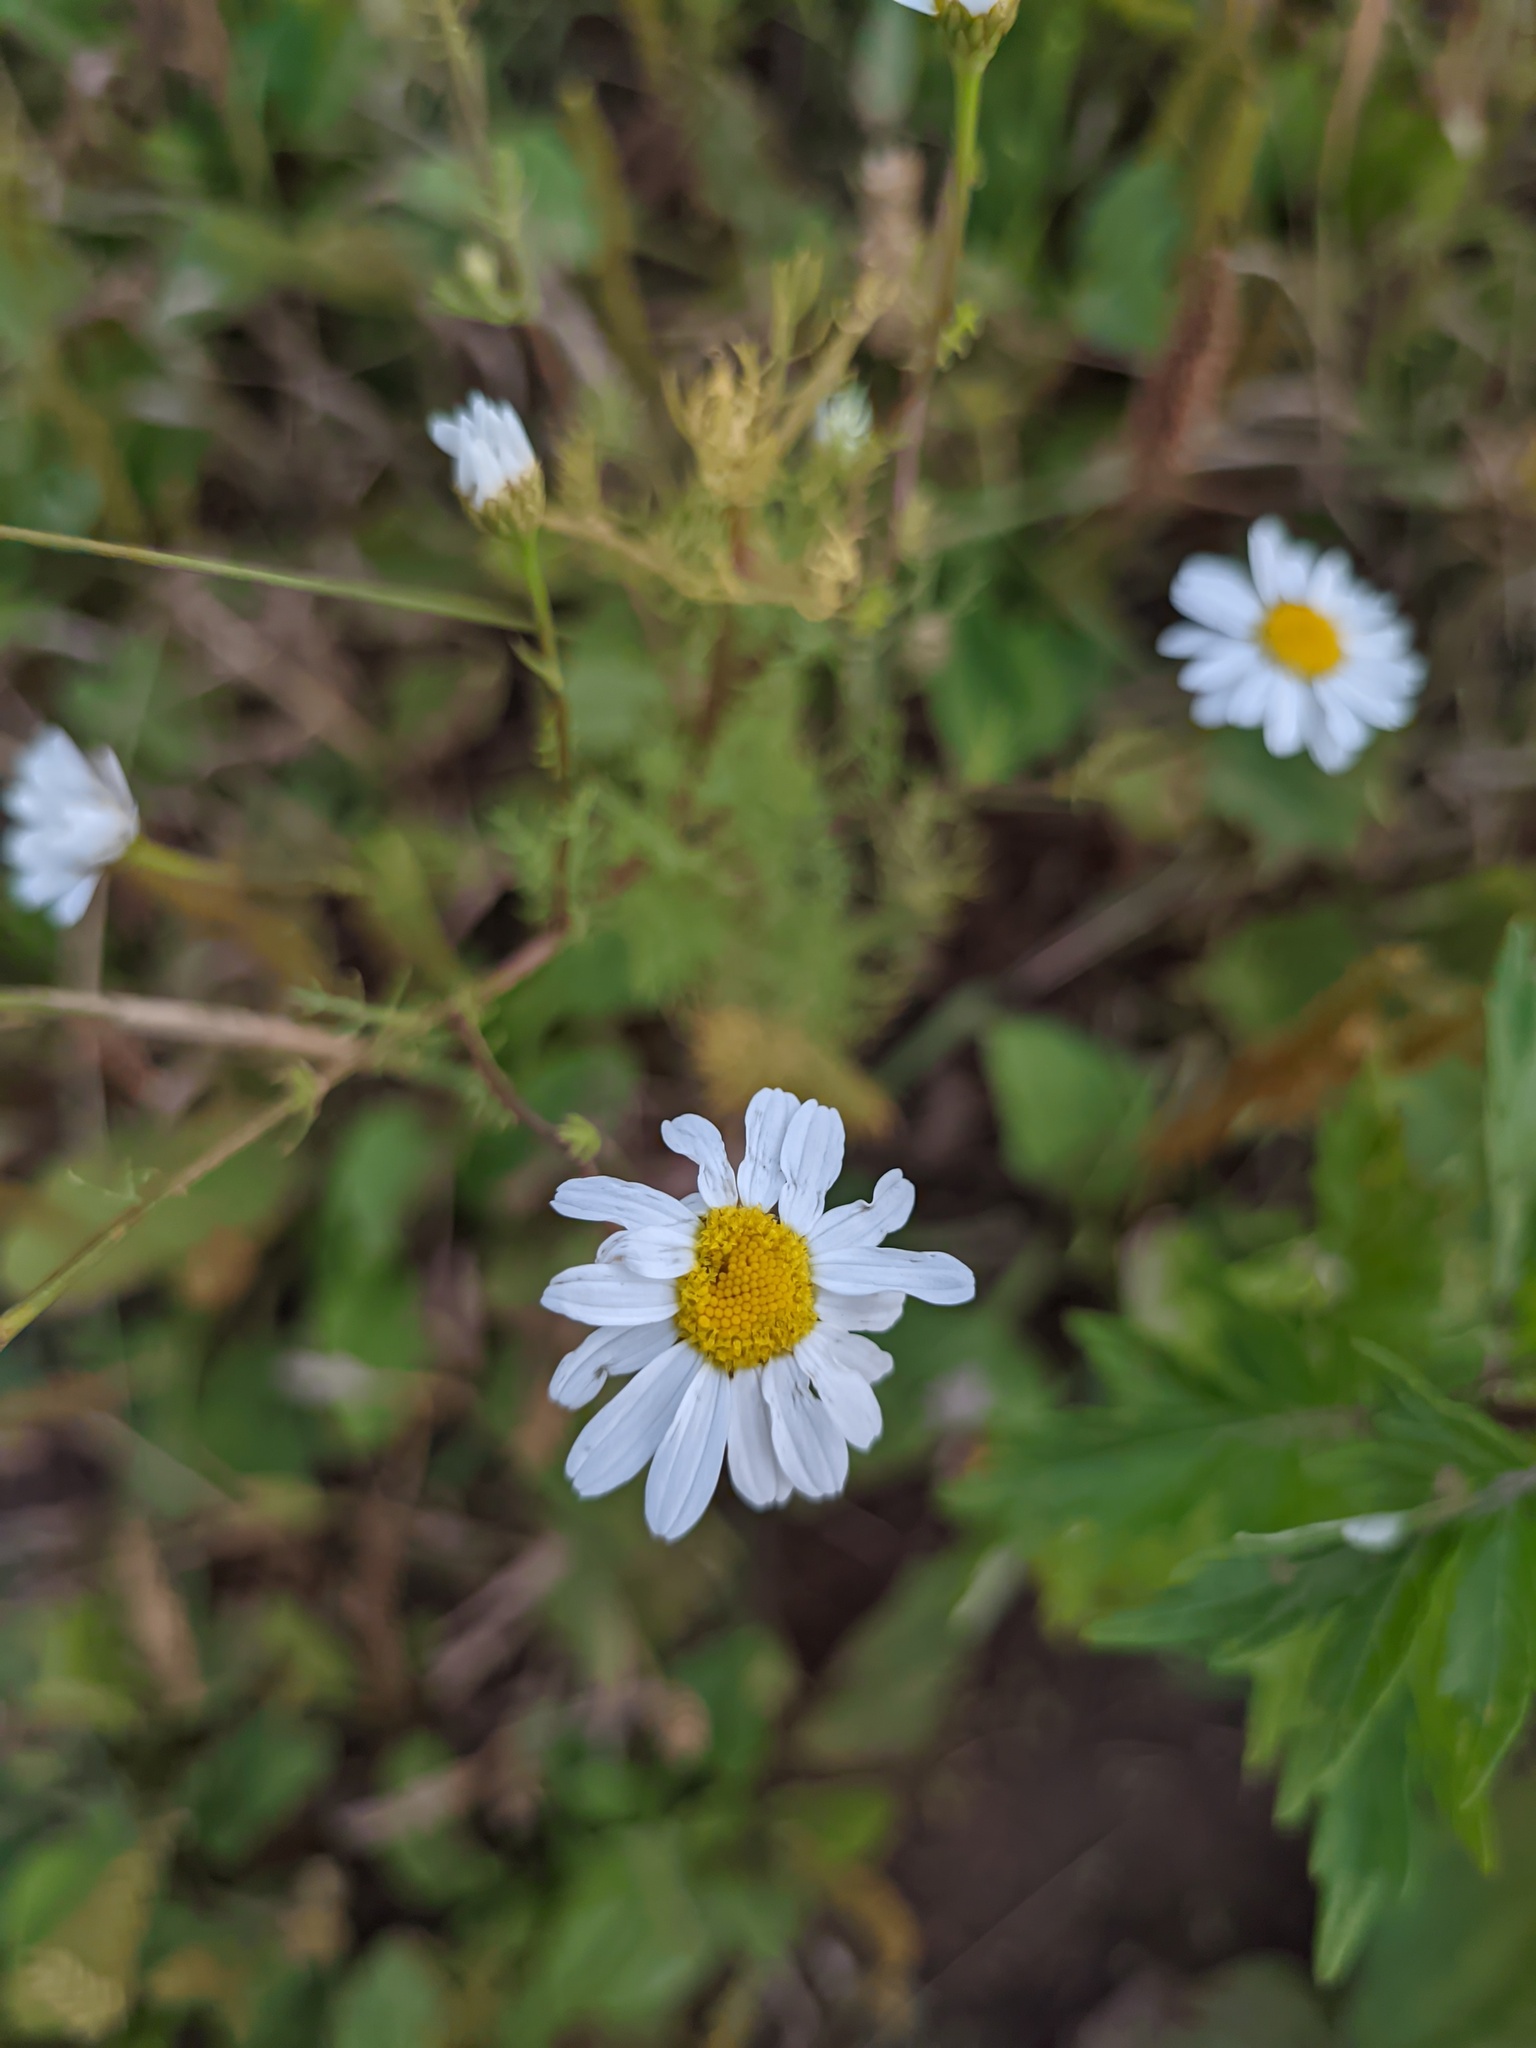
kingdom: Plantae
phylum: Tracheophyta
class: Magnoliopsida
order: Asterales
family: Asteraceae
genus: Tripleurospermum
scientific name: Tripleurospermum inodorum
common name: Scentless mayweed
